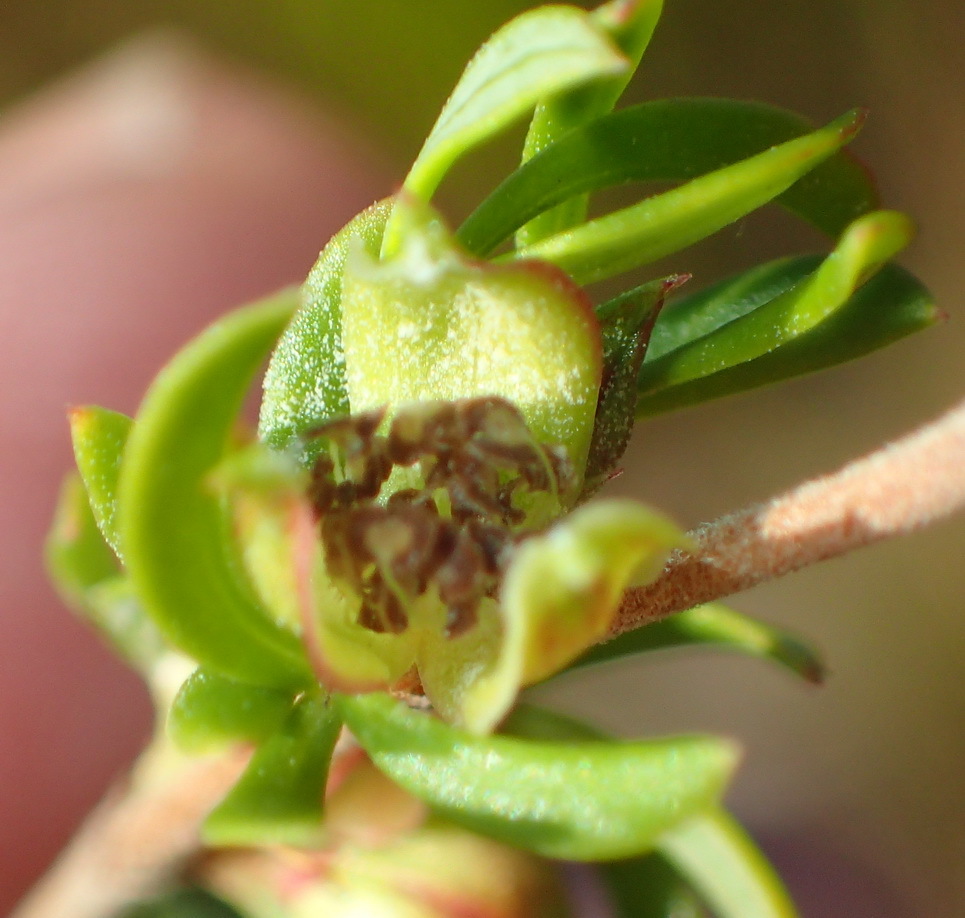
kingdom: Plantae
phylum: Tracheophyta
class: Magnoliopsida
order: Rosales
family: Rosaceae
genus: Cliffortia
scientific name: Cliffortia falcata
